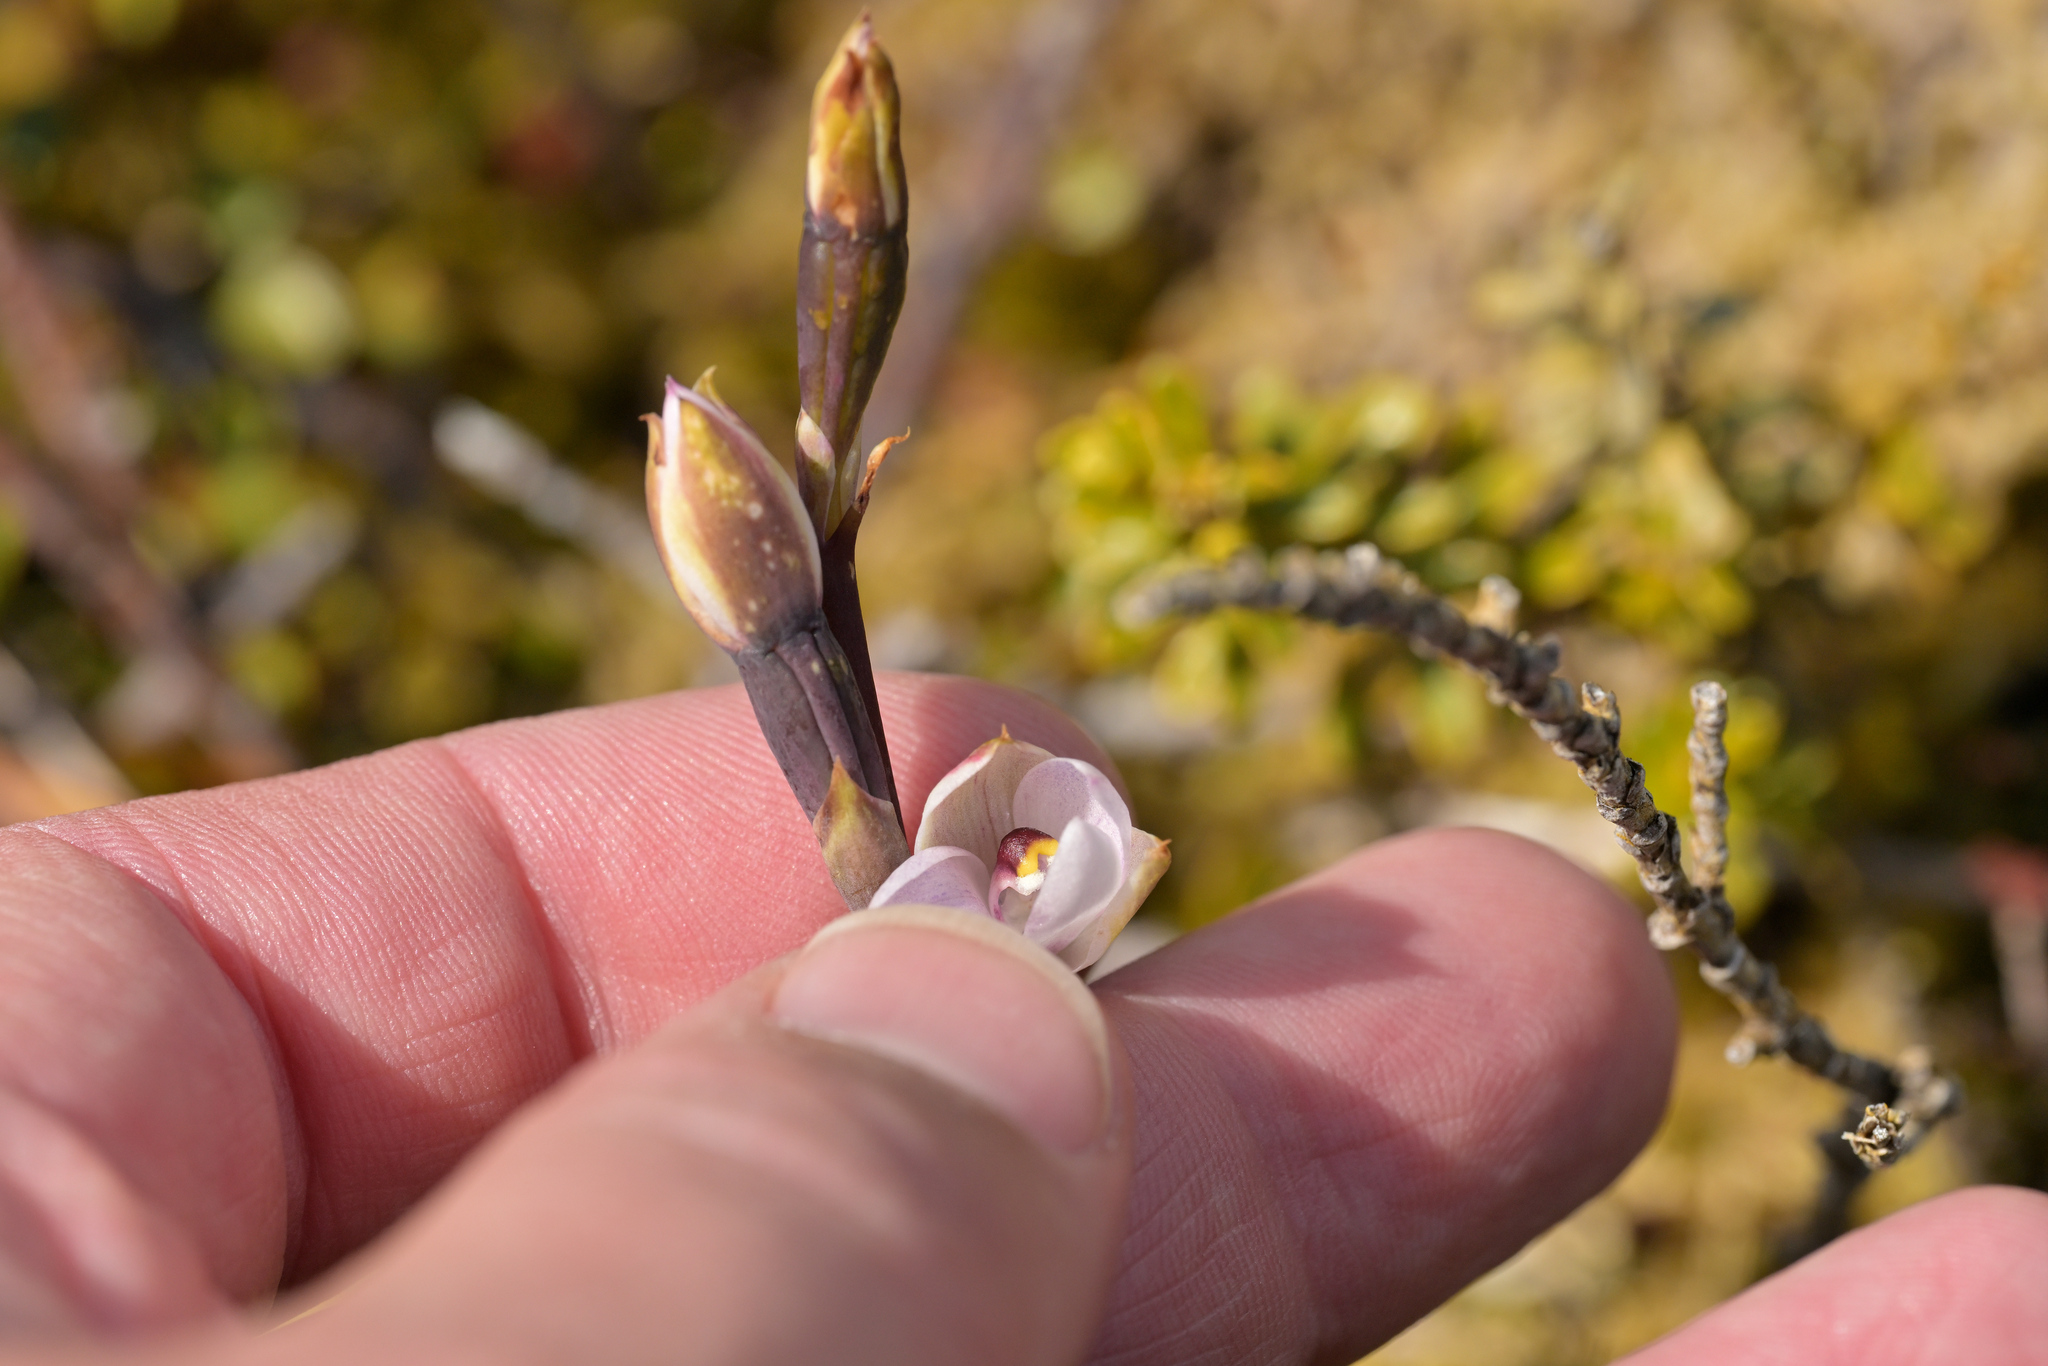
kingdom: Plantae
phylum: Tracheophyta
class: Liliopsida
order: Asparagales
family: Orchidaceae
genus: Thelymitra
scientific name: Thelymitra longifolia
